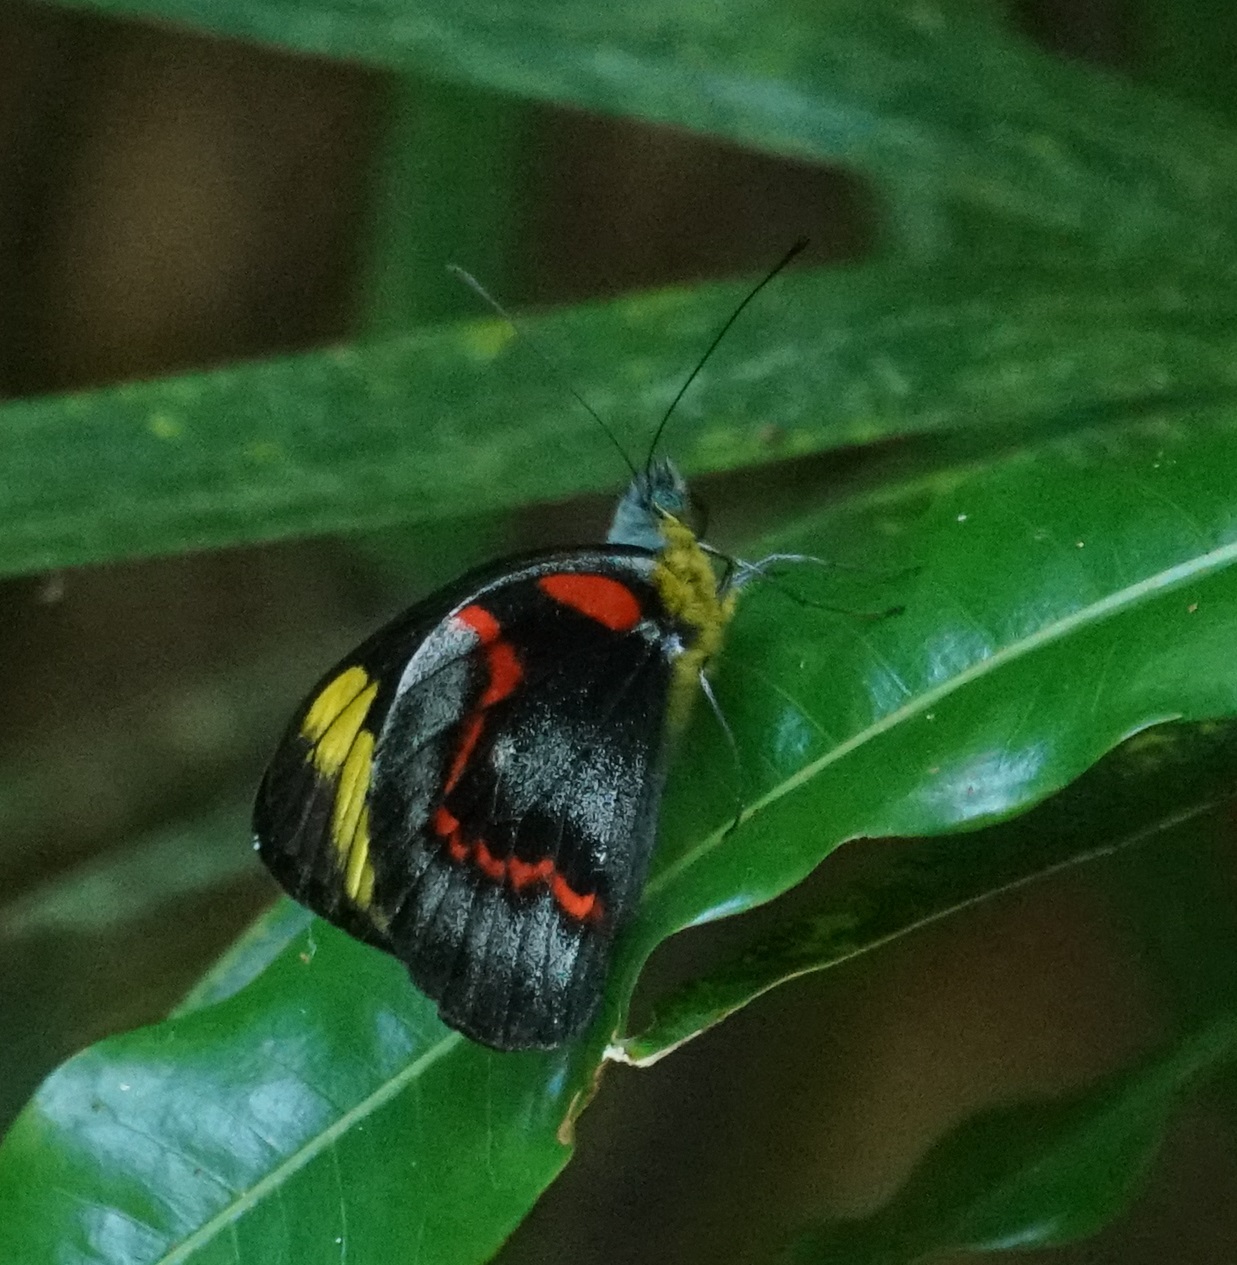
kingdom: Animalia
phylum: Arthropoda
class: Insecta
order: Lepidoptera
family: Pieridae
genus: Delias
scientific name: Delias nigrina
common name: Black jezebel
